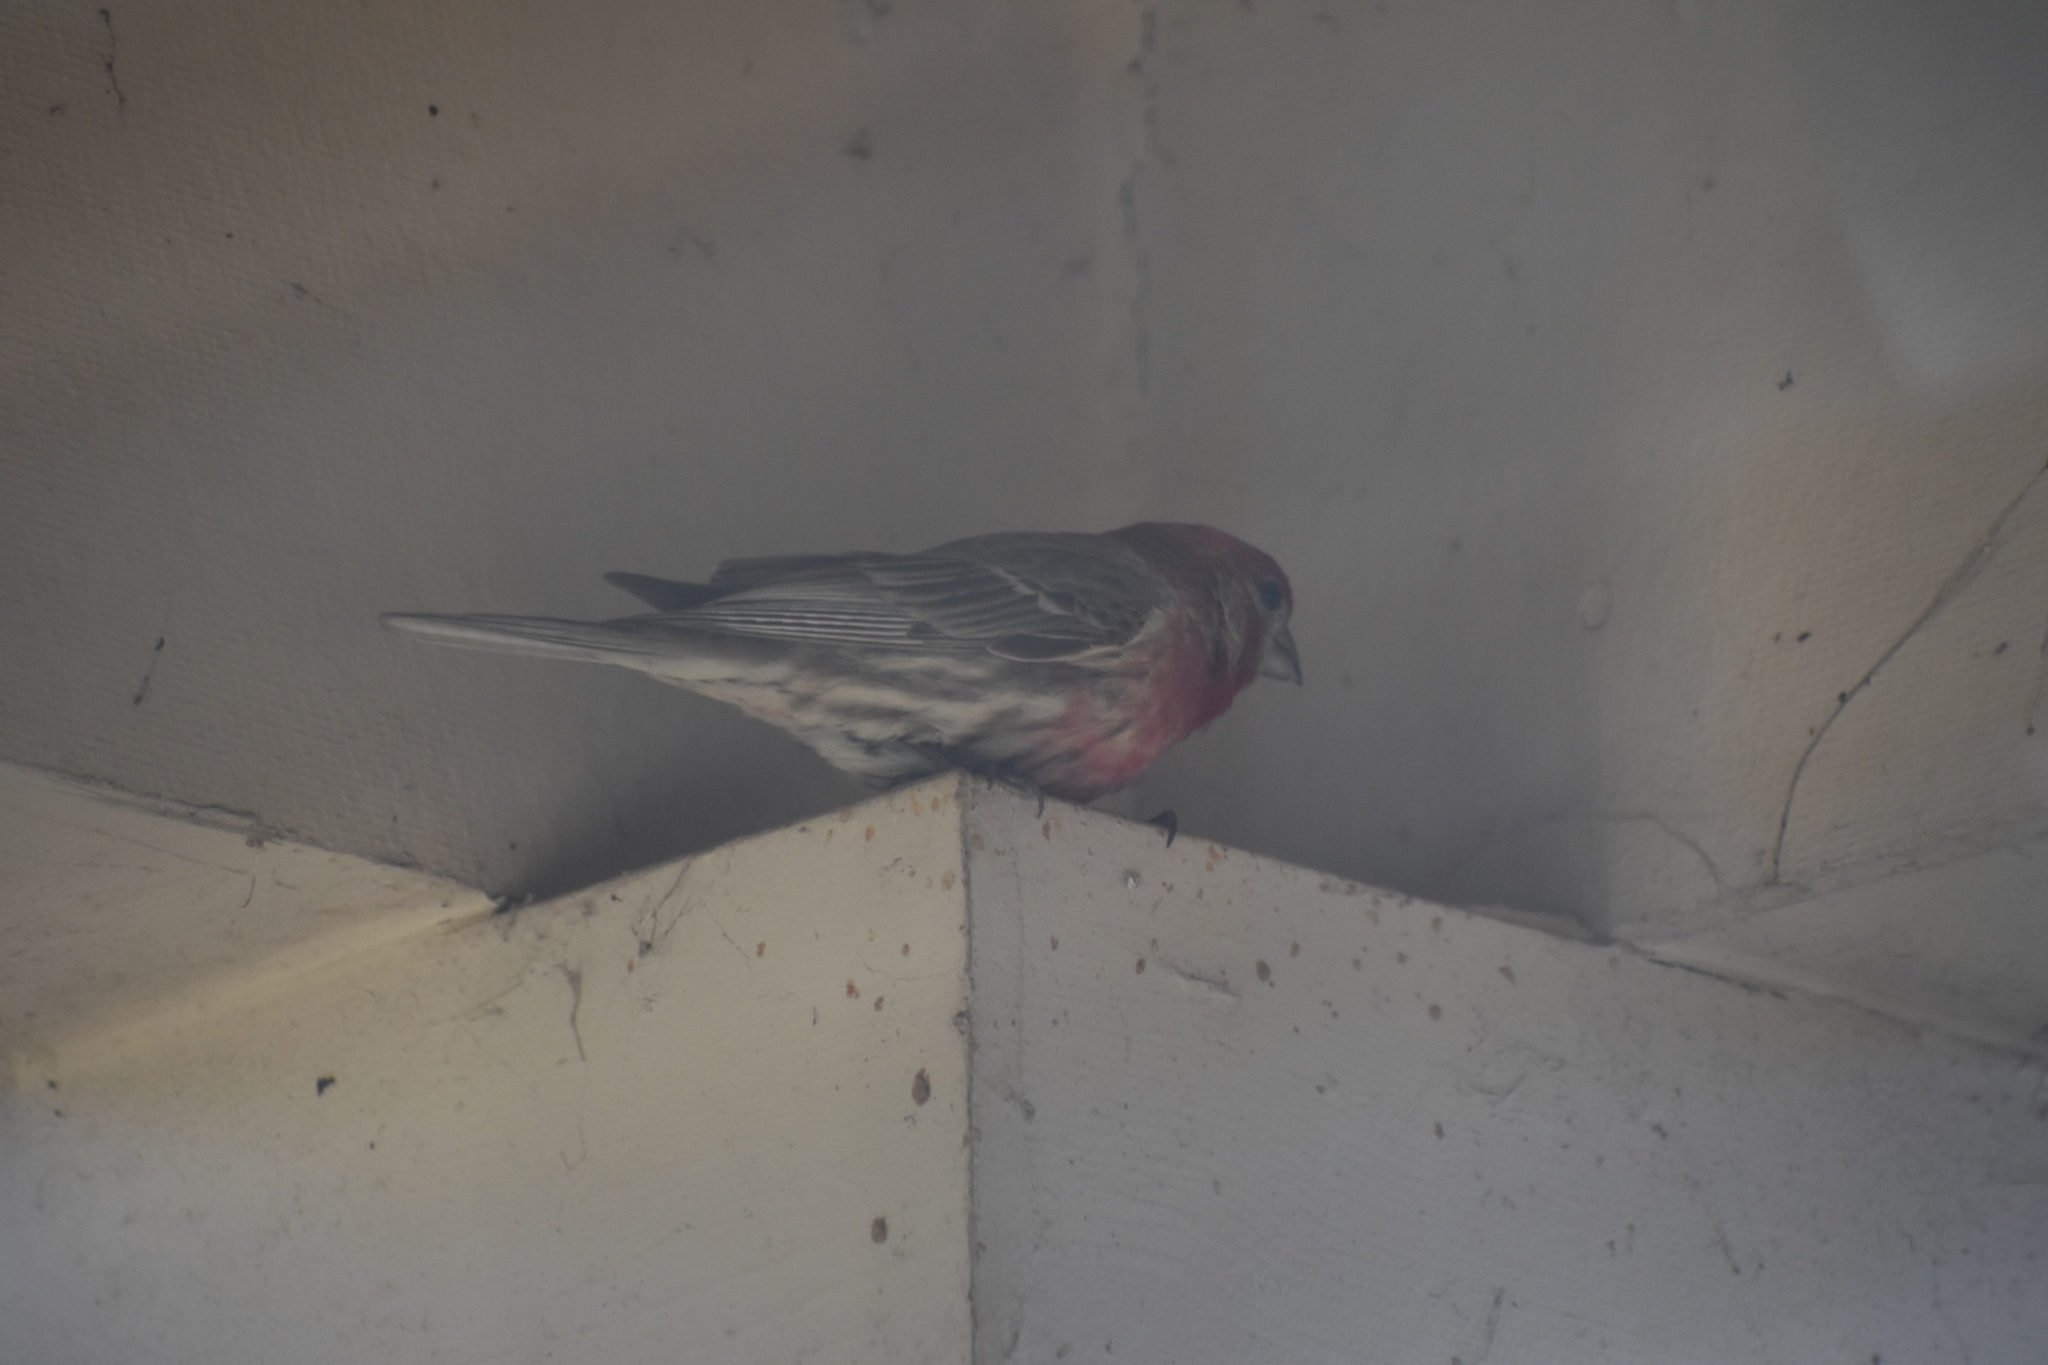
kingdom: Animalia
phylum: Chordata
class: Aves
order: Passeriformes
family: Fringillidae
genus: Haemorhous
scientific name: Haemorhous mexicanus
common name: House finch
